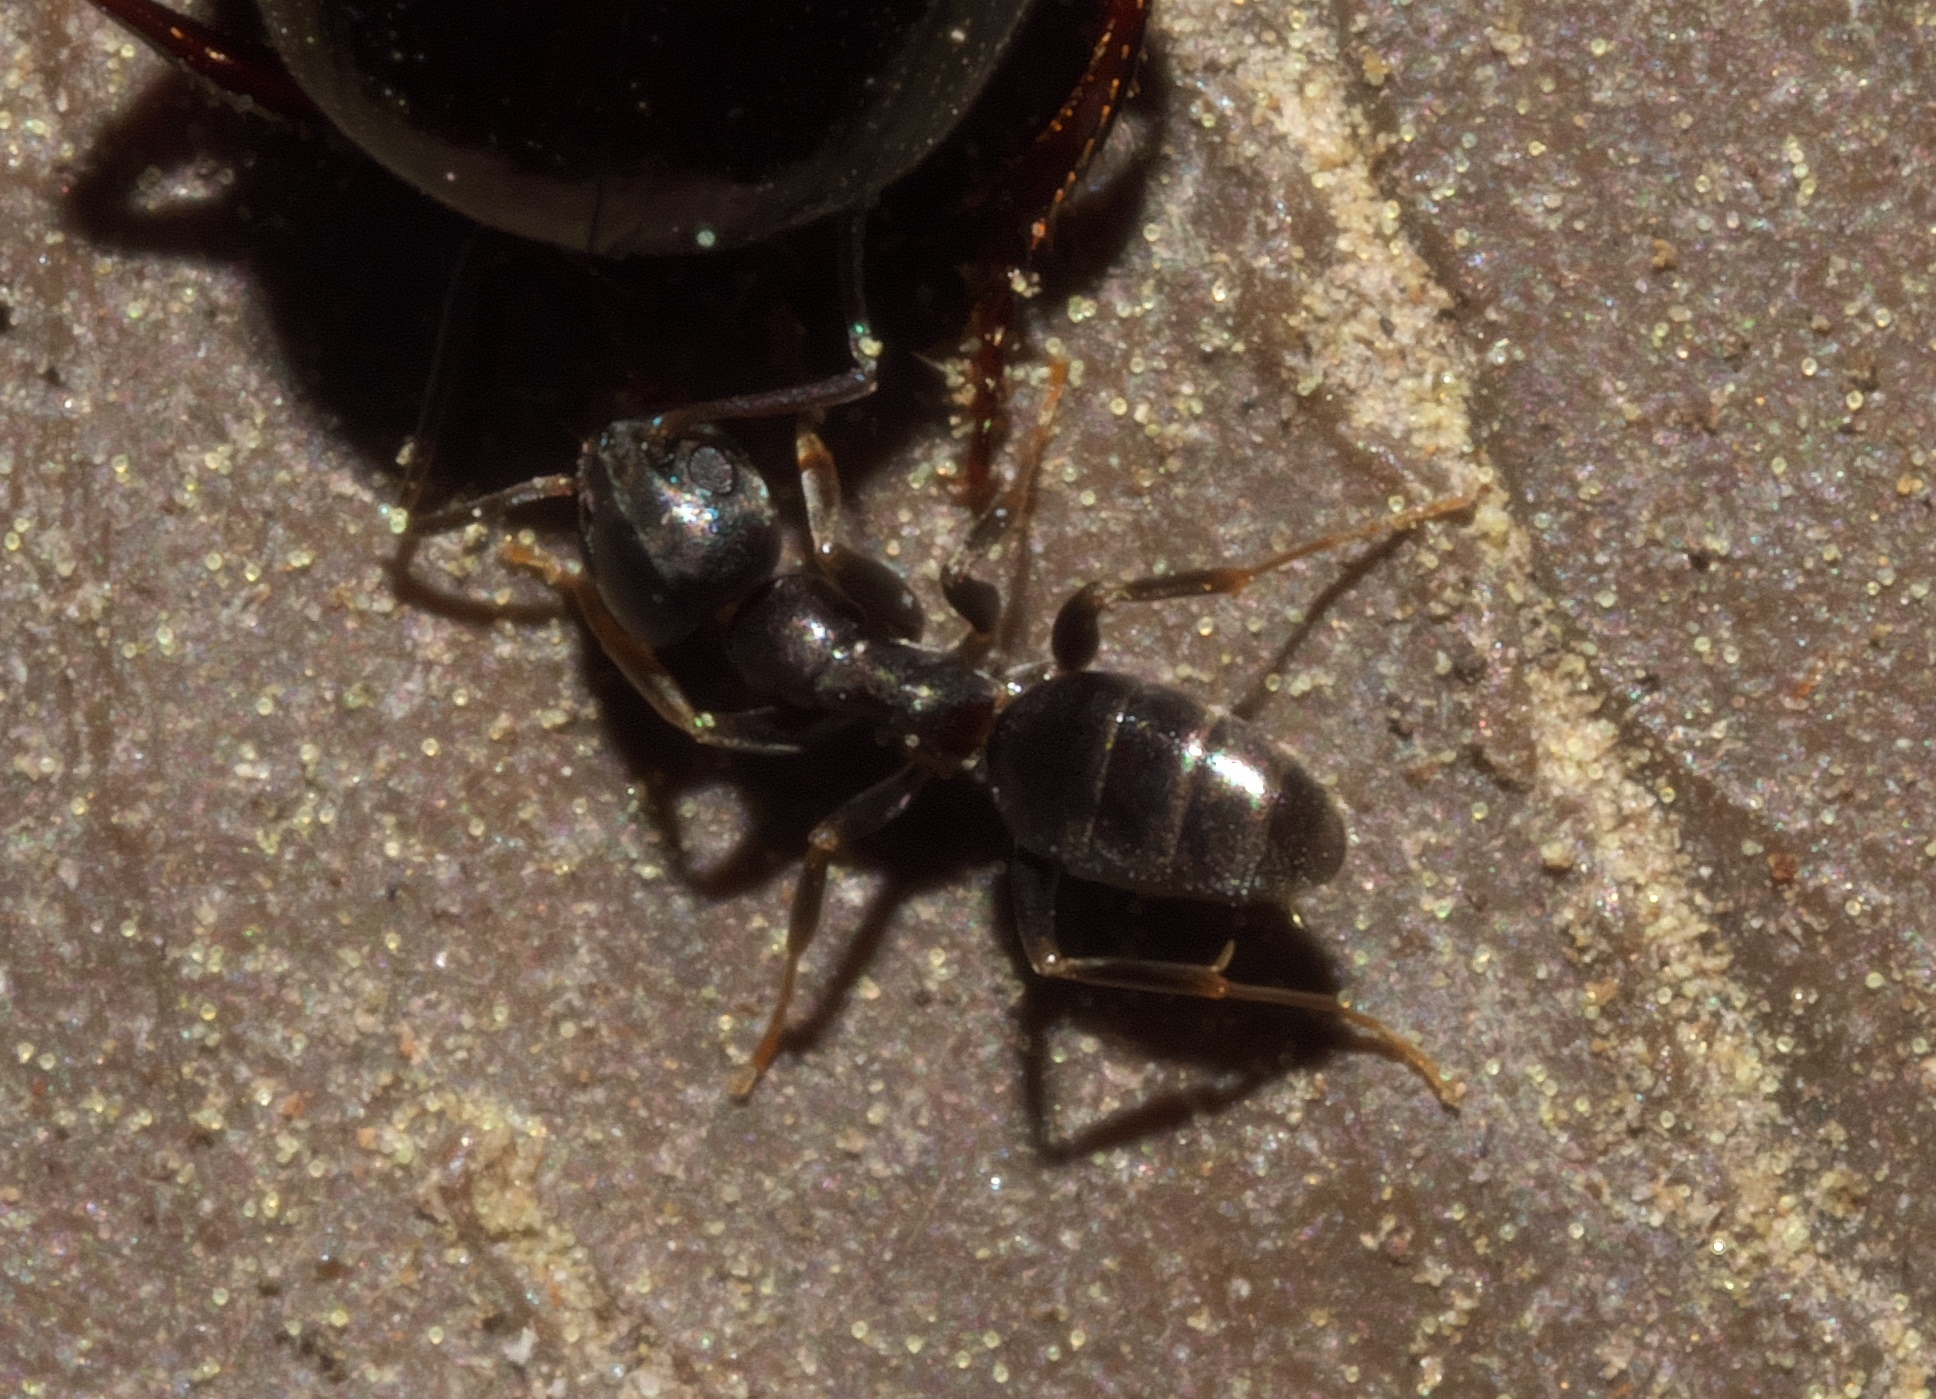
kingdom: Animalia
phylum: Arthropoda
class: Insecta
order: Hymenoptera
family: Formicidae
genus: Tapinoma
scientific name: Tapinoma sessile
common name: Odorous house ant
